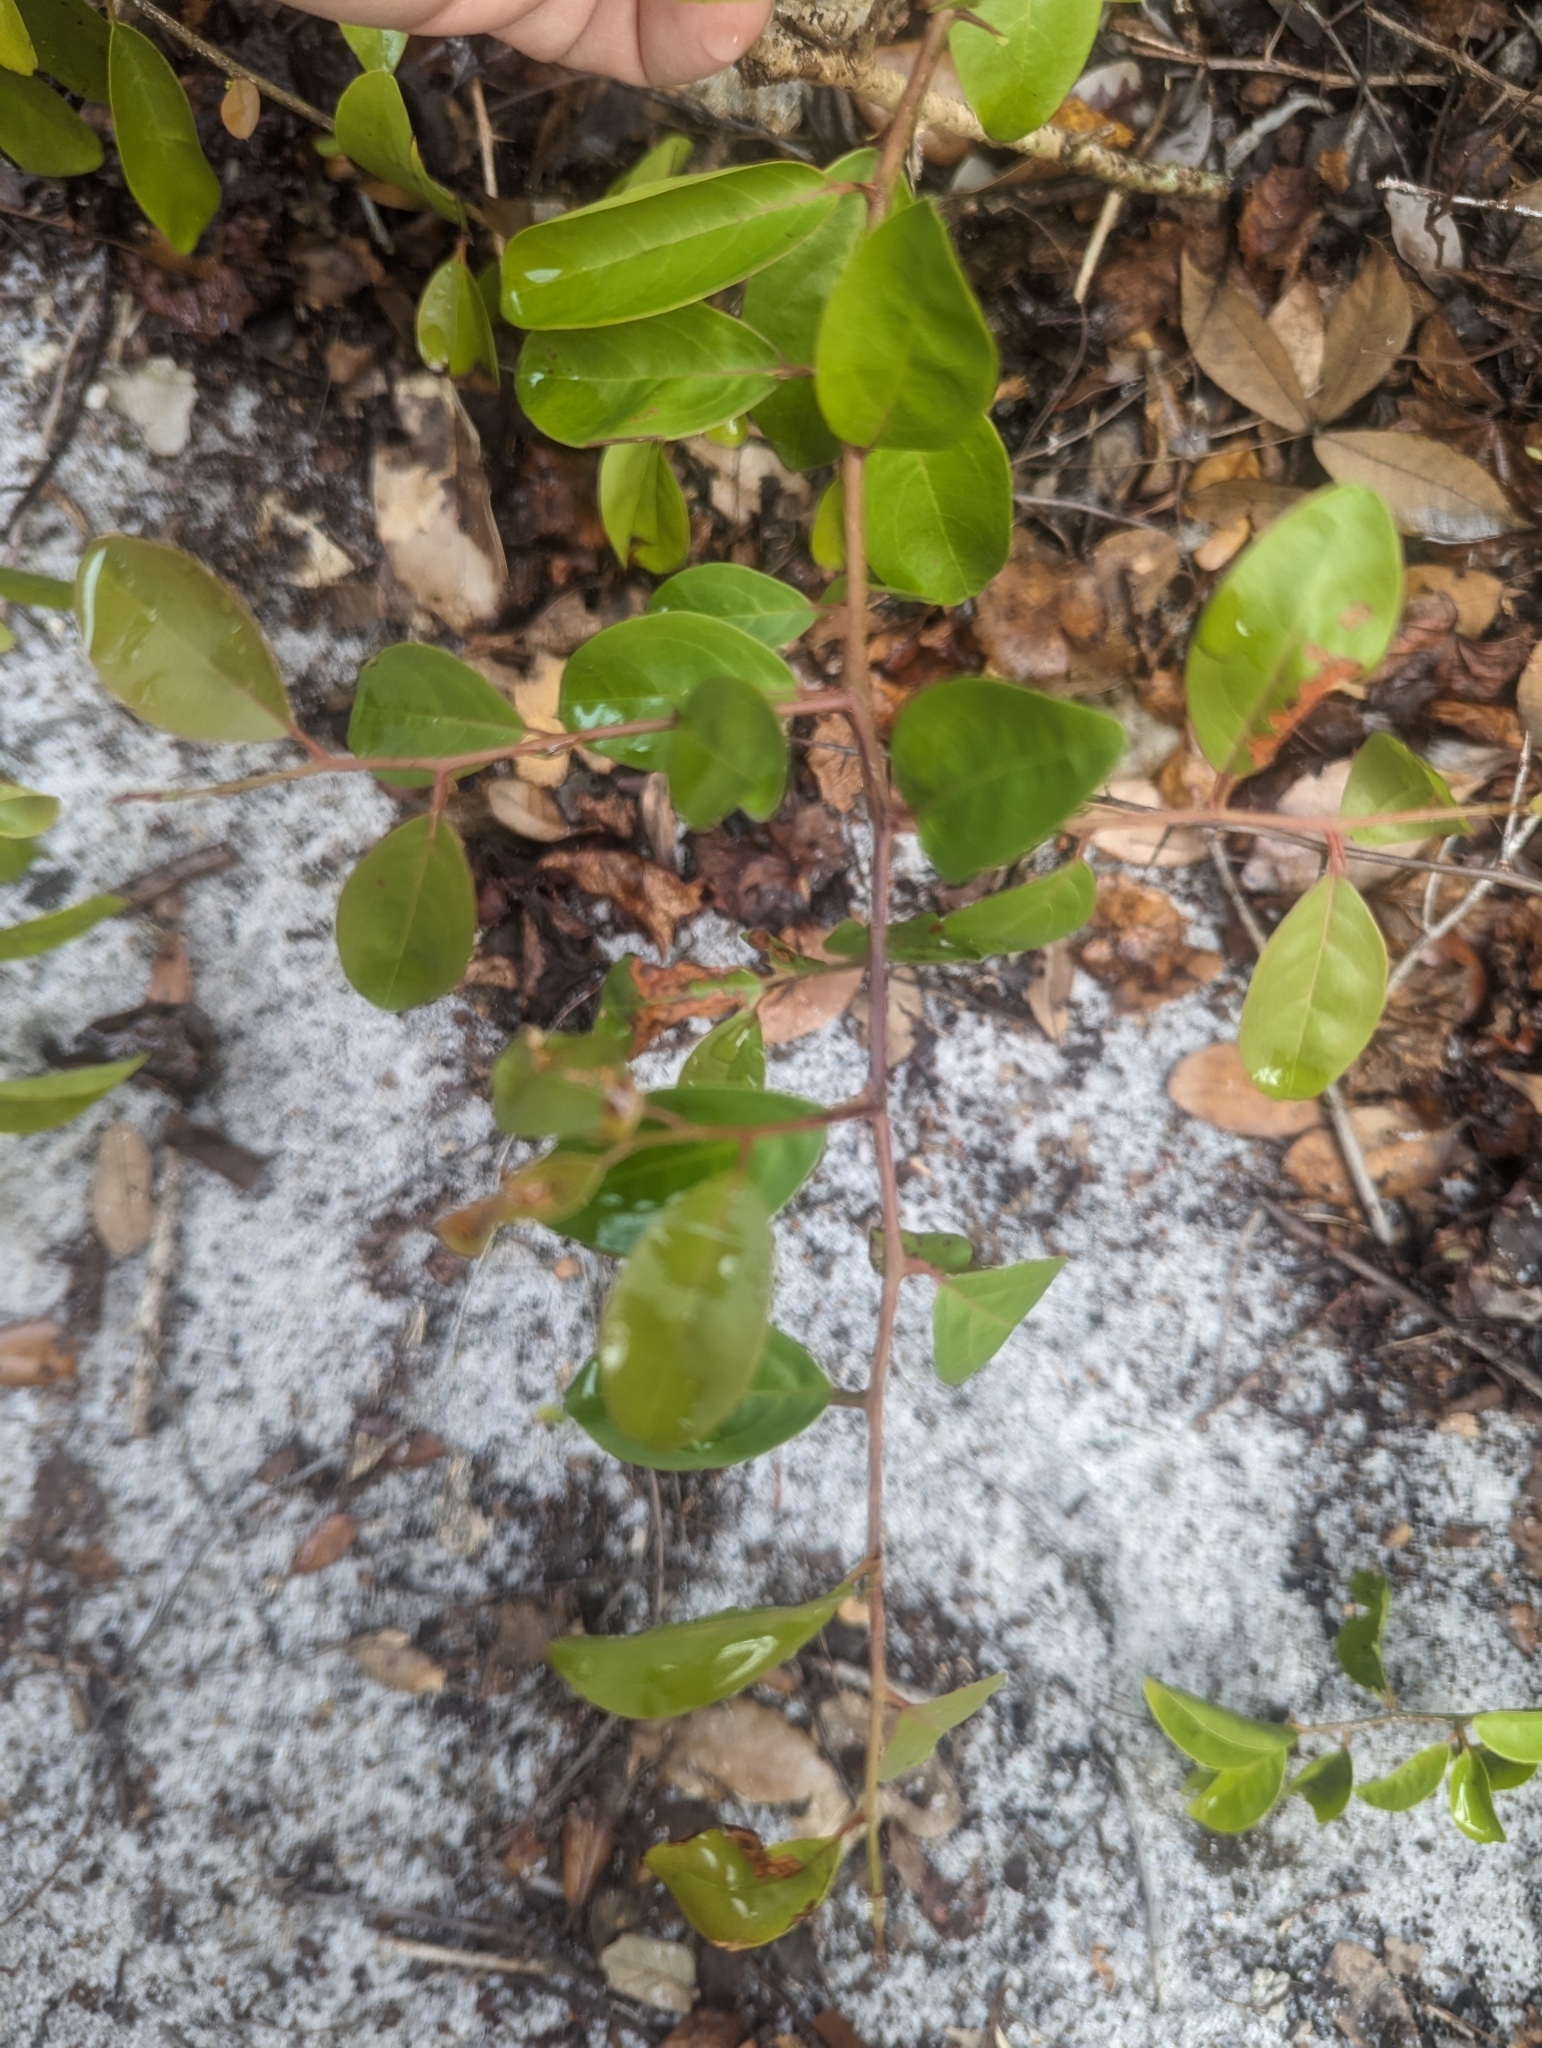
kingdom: Plantae
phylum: Tracheophyta
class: Magnoliopsida
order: Santalales
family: Ximeniaceae
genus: Ximenia
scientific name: Ximenia americana
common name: Tallowwood
